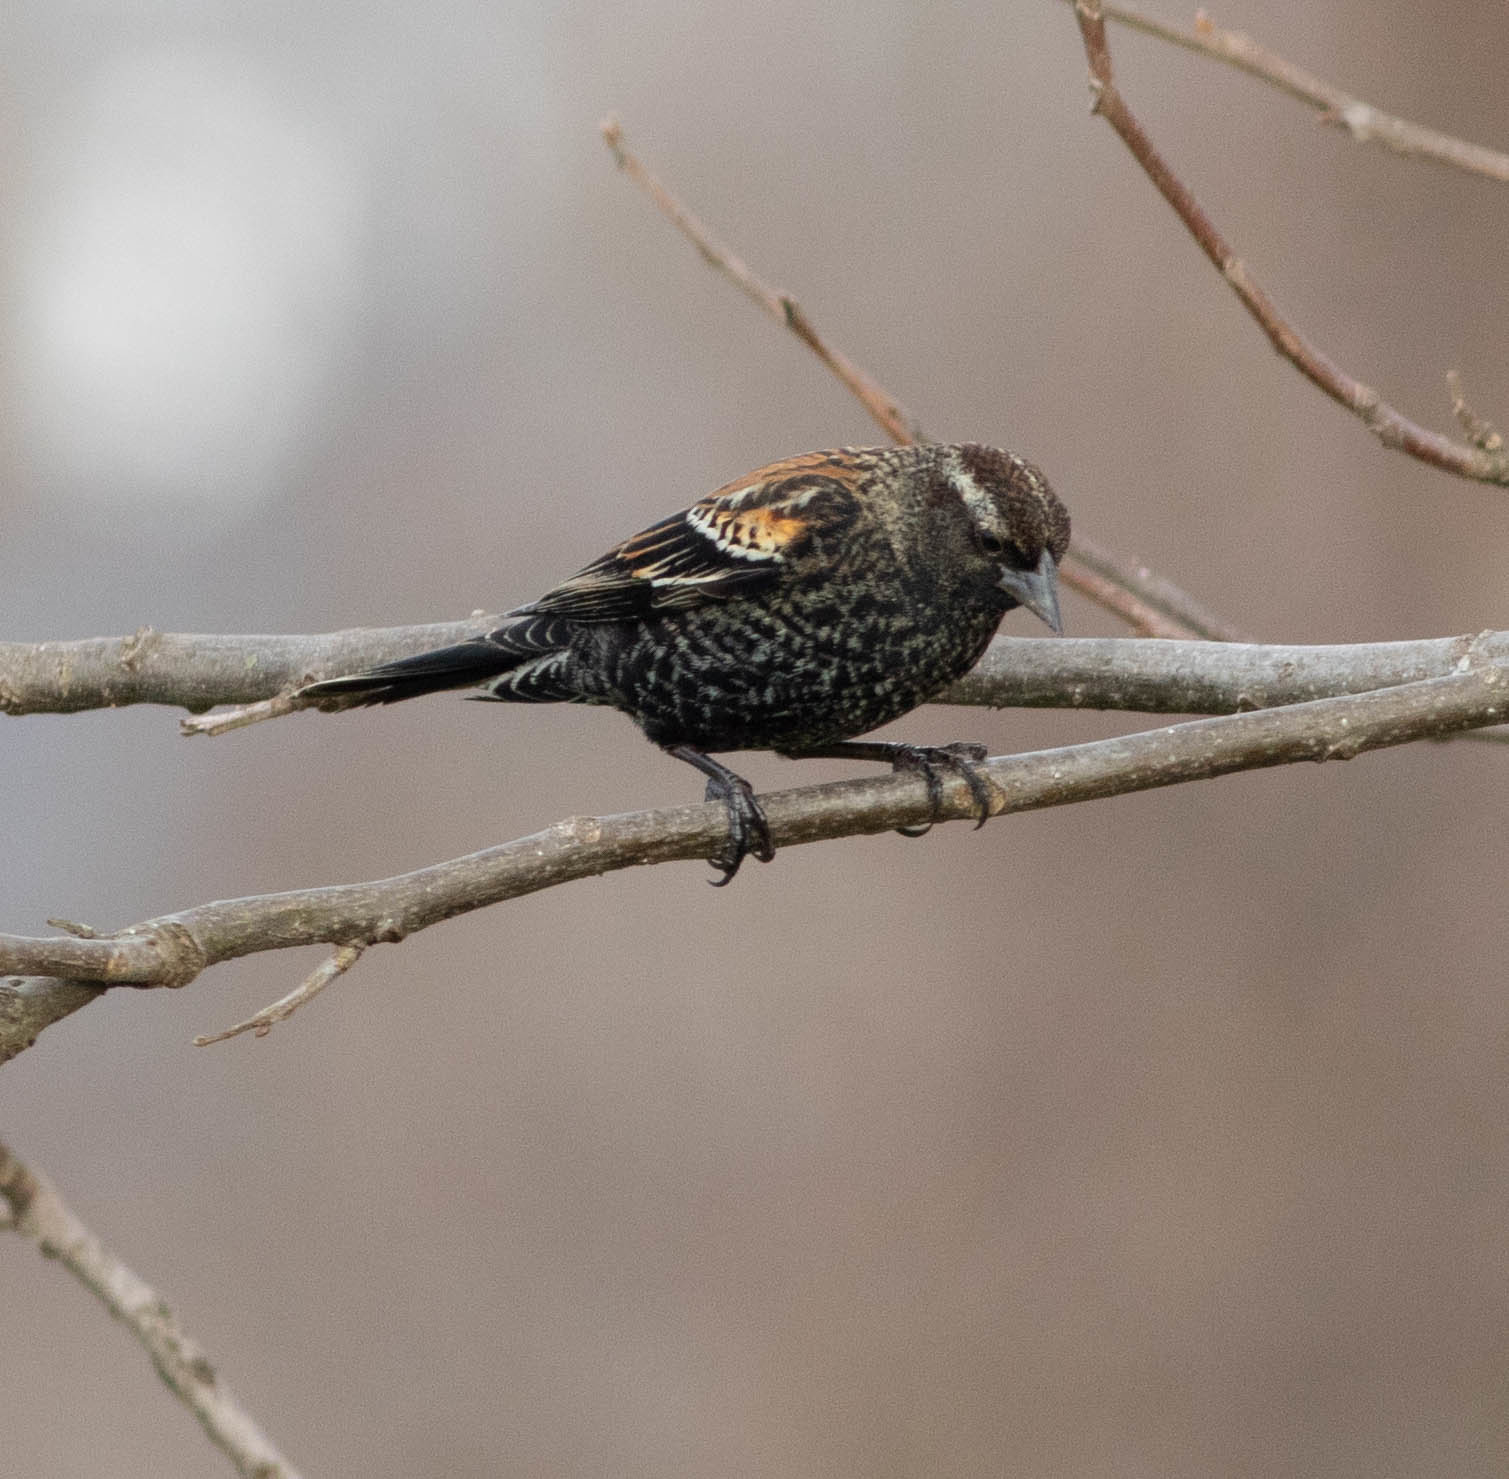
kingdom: Animalia
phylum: Chordata
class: Aves
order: Passeriformes
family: Icteridae
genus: Agelaius
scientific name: Agelaius phoeniceus
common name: Red-winged blackbird
